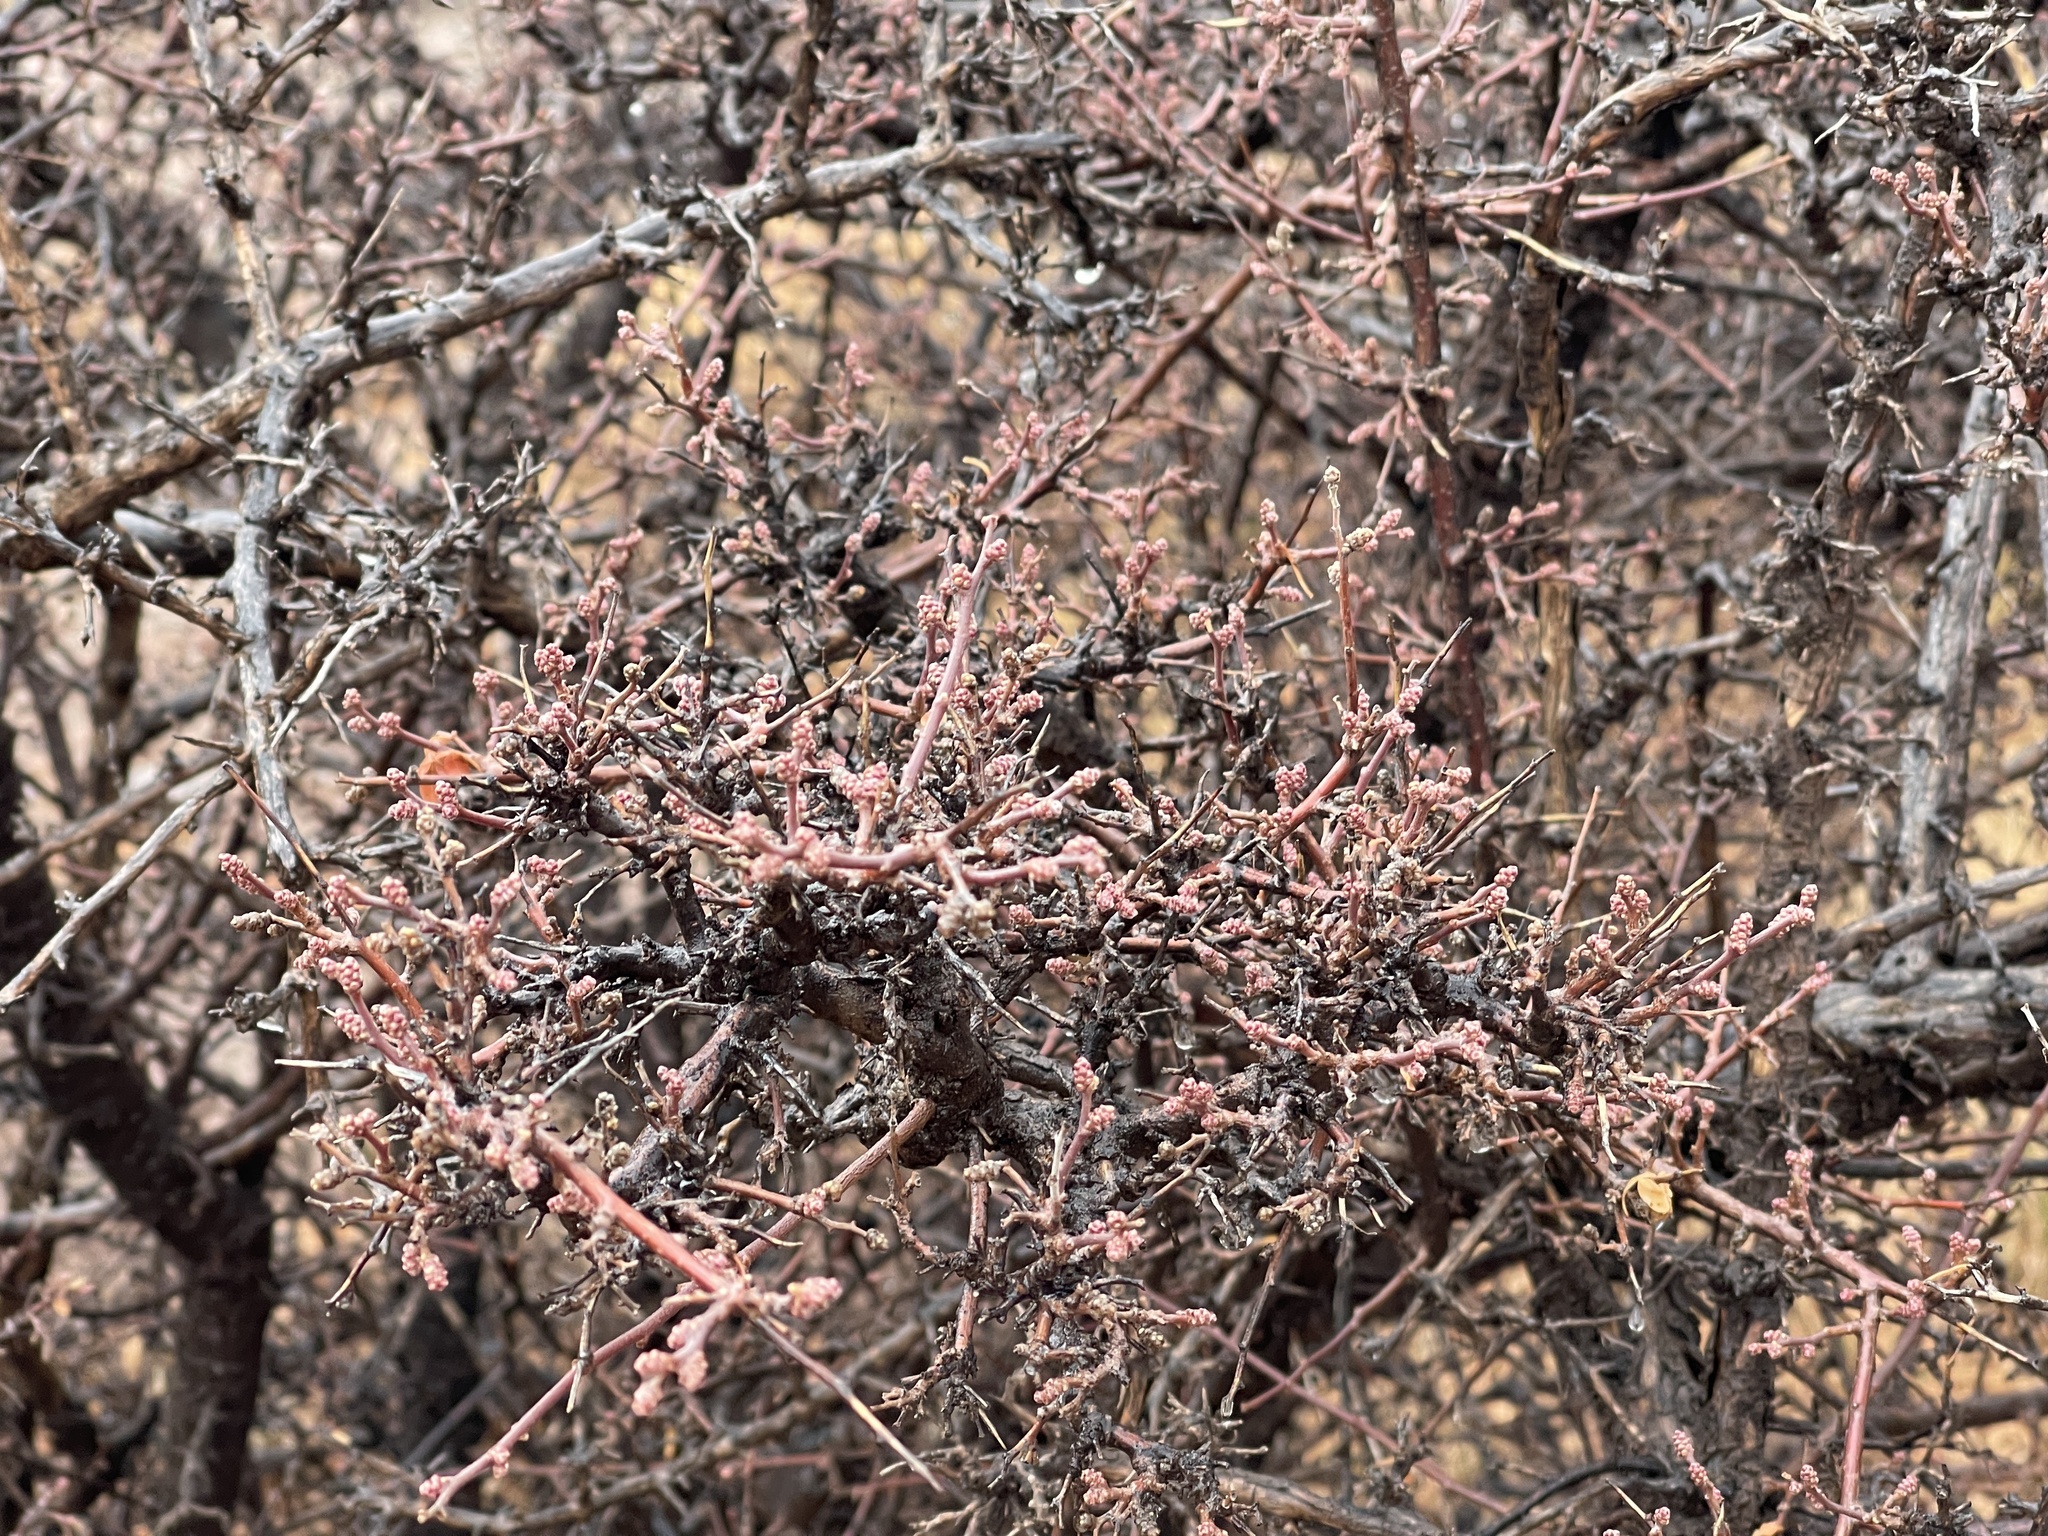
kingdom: Plantae
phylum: Tracheophyta
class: Magnoliopsida
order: Sapindales
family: Anacardiaceae
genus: Rhus
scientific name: Rhus microphylla
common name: Desert sumac
